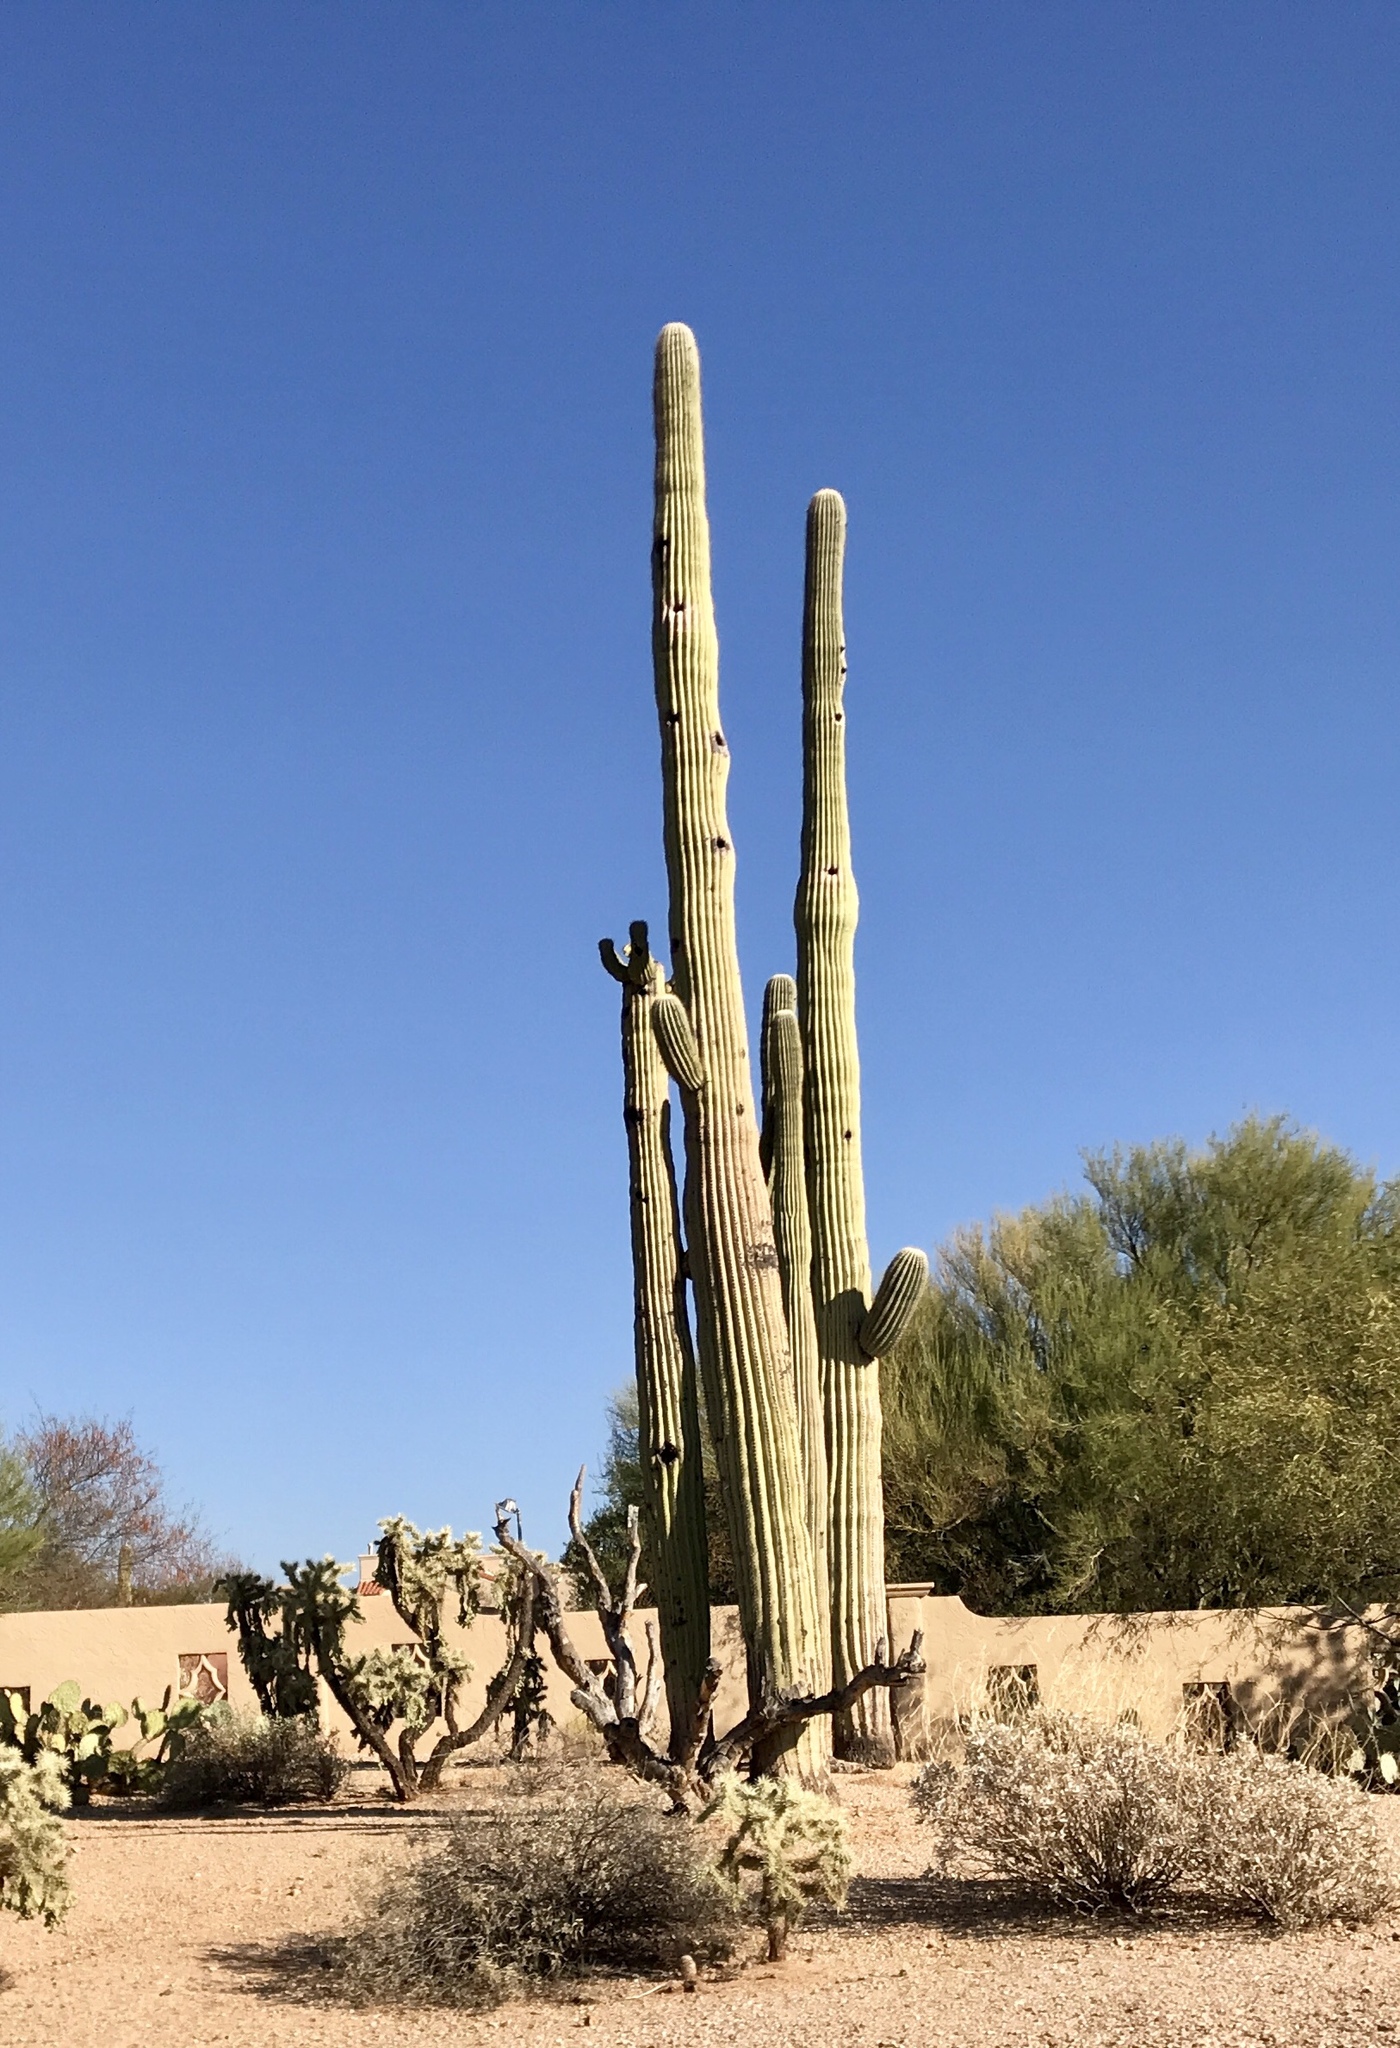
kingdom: Plantae
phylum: Tracheophyta
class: Magnoliopsida
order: Caryophyllales
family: Cactaceae
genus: Carnegiea
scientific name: Carnegiea gigantea
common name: Saguaro
